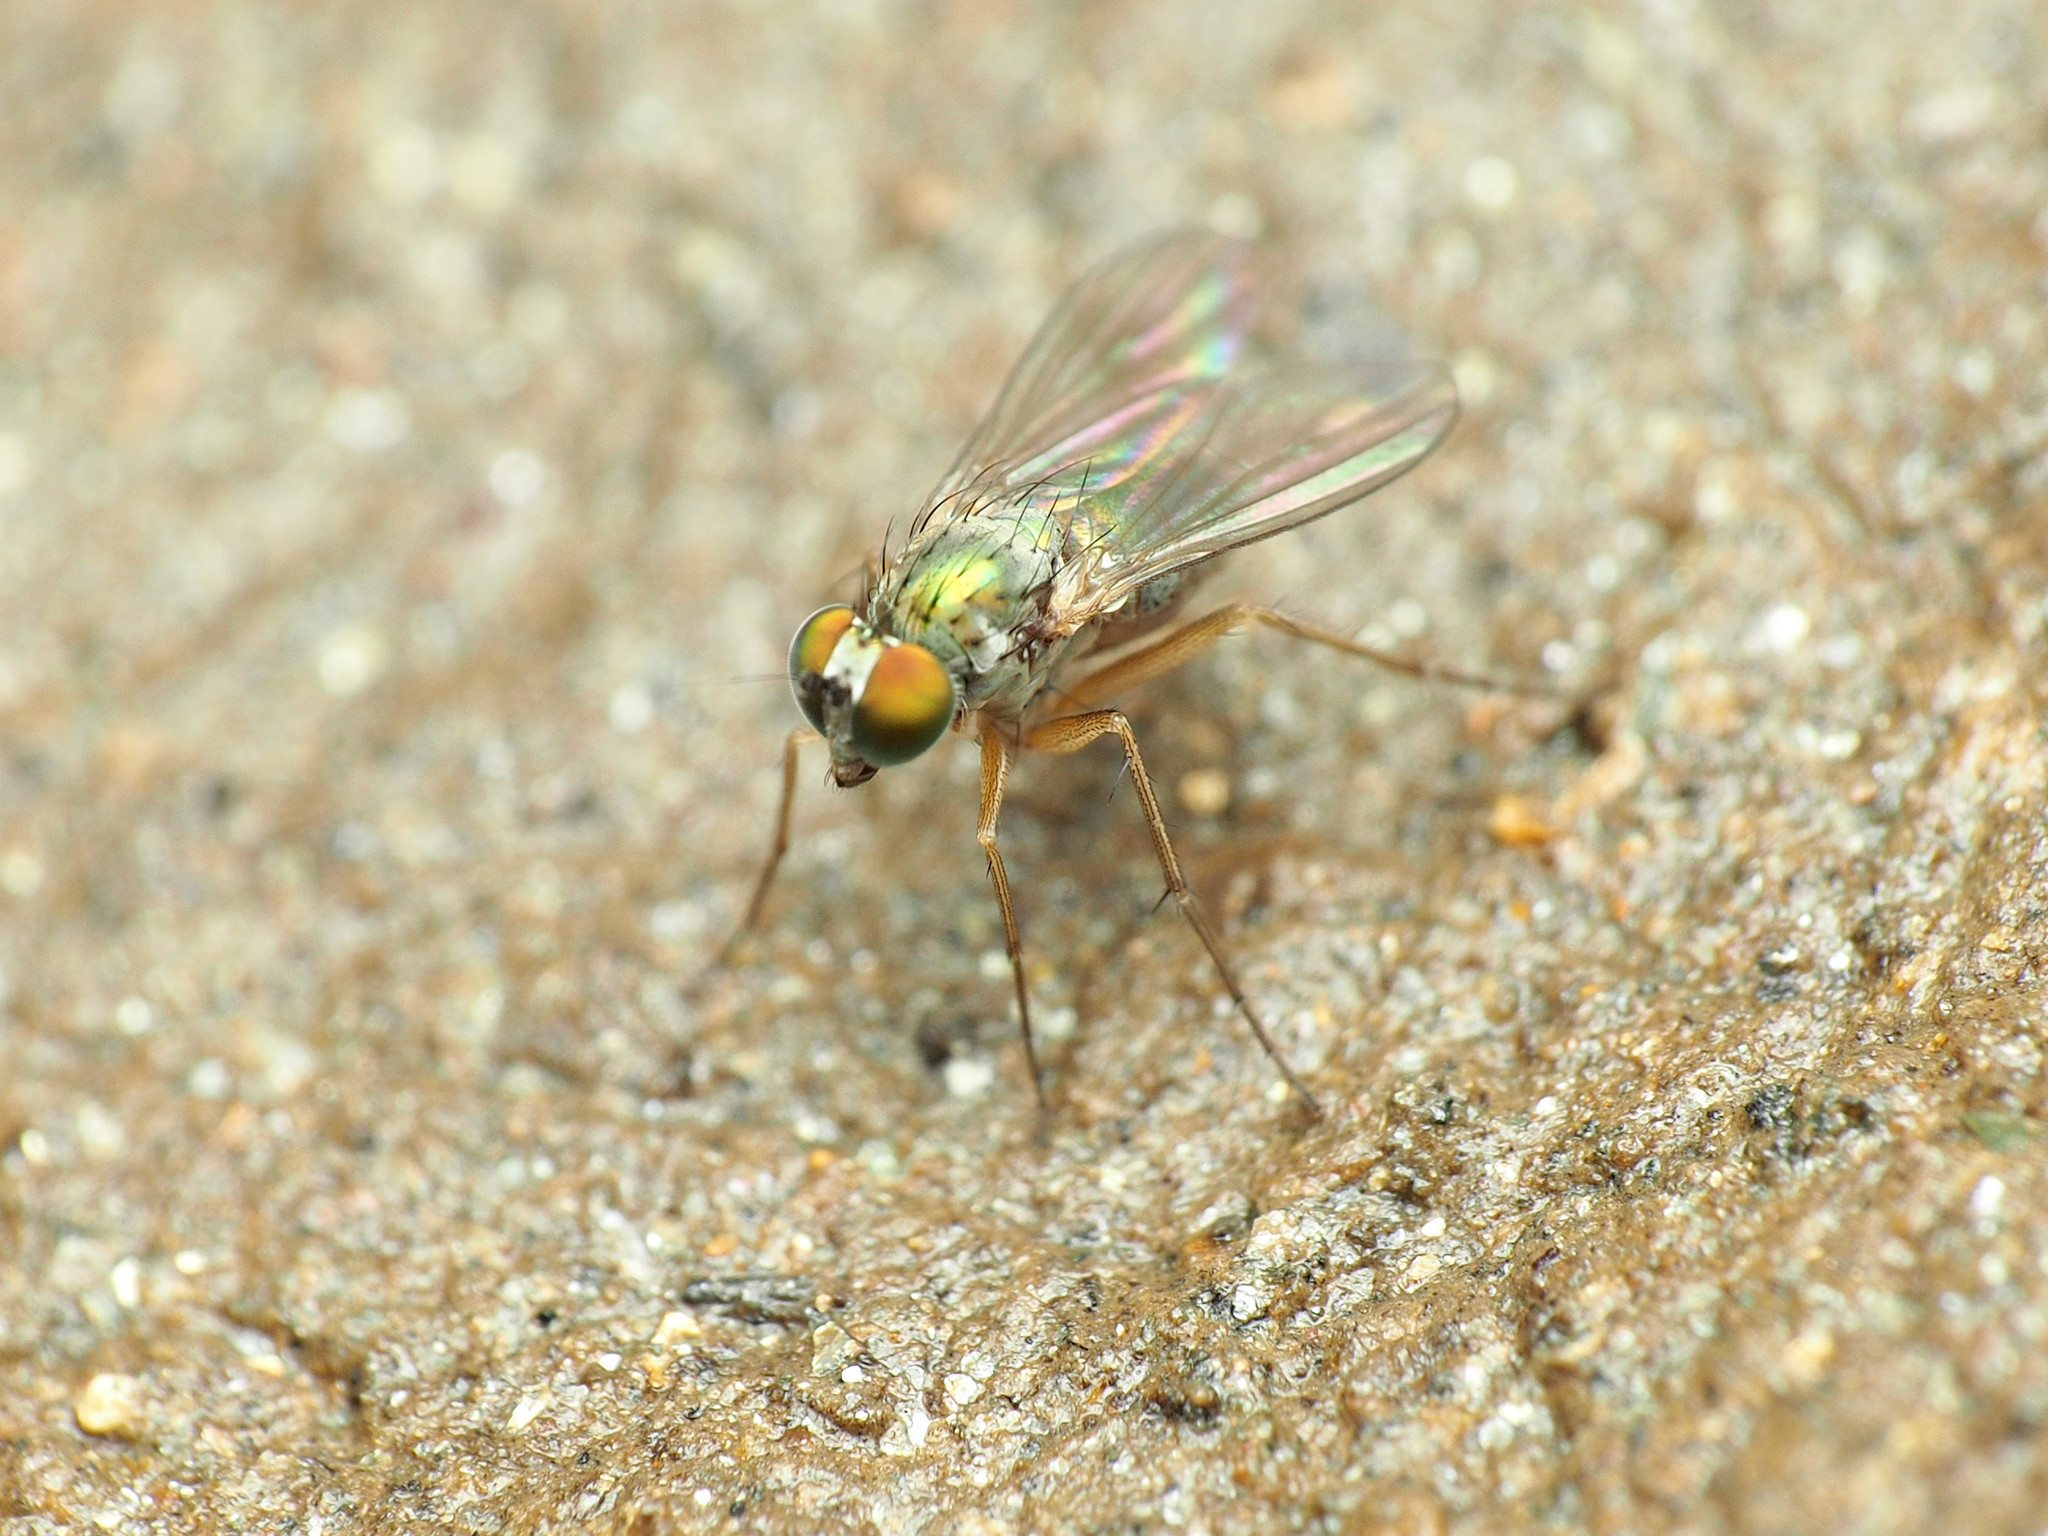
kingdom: Animalia
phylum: Arthropoda
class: Insecta
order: Diptera
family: Dolichopodidae
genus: Chrysotus
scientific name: Chrysotus
